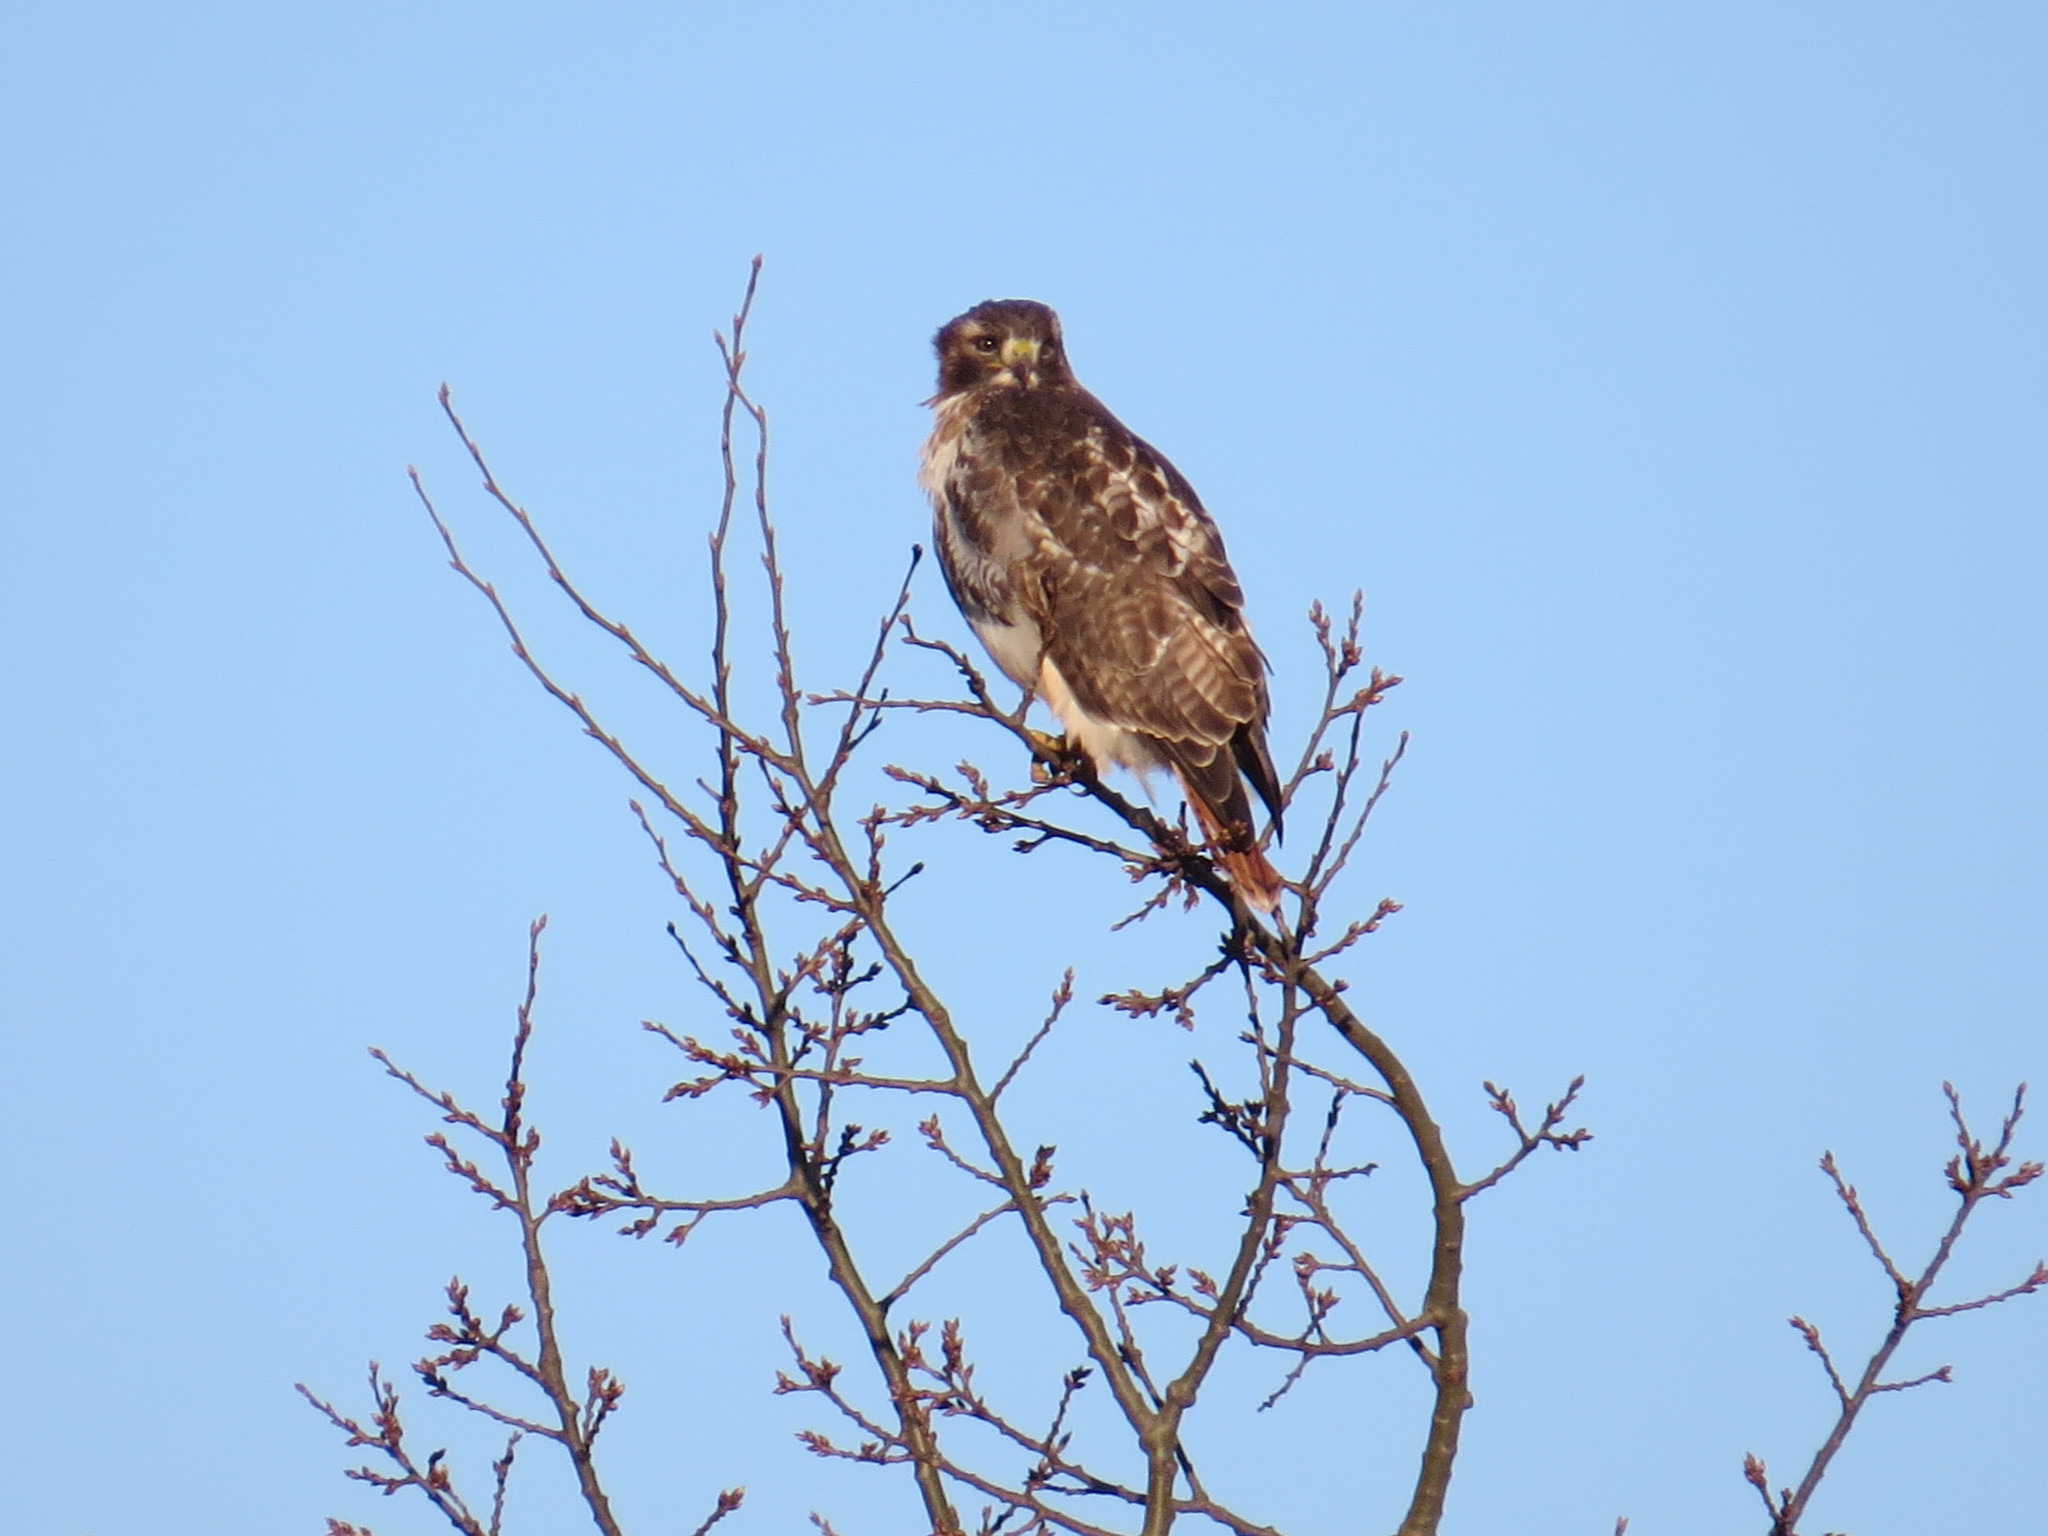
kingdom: Animalia
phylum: Chordata
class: Aves
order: Accipitriformes
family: Accipitridae
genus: Buteo
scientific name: Buteo jamaicensis
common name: Red-tailed hawk
